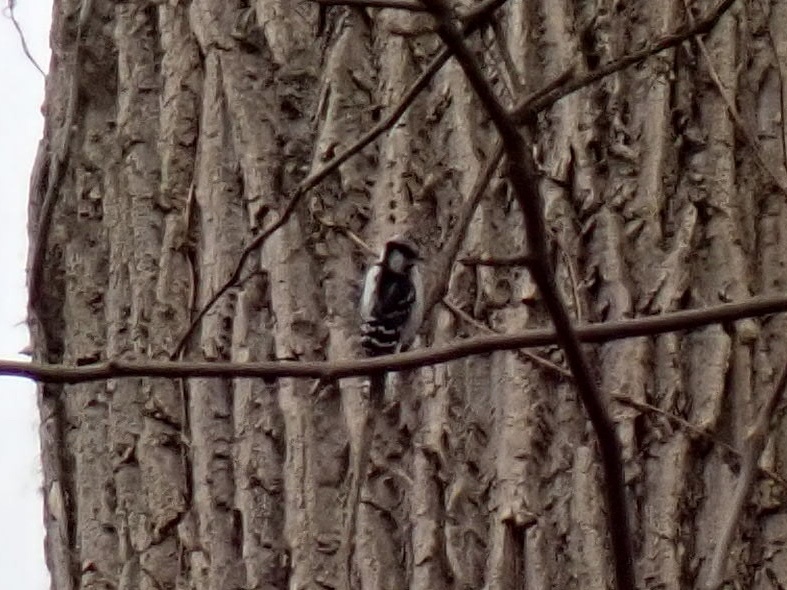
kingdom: Animalia
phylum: Chordata
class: Aves
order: Piciformes
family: Picidae
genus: Dryobates
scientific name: Dryobates pubescens
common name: Downy woodpecker
